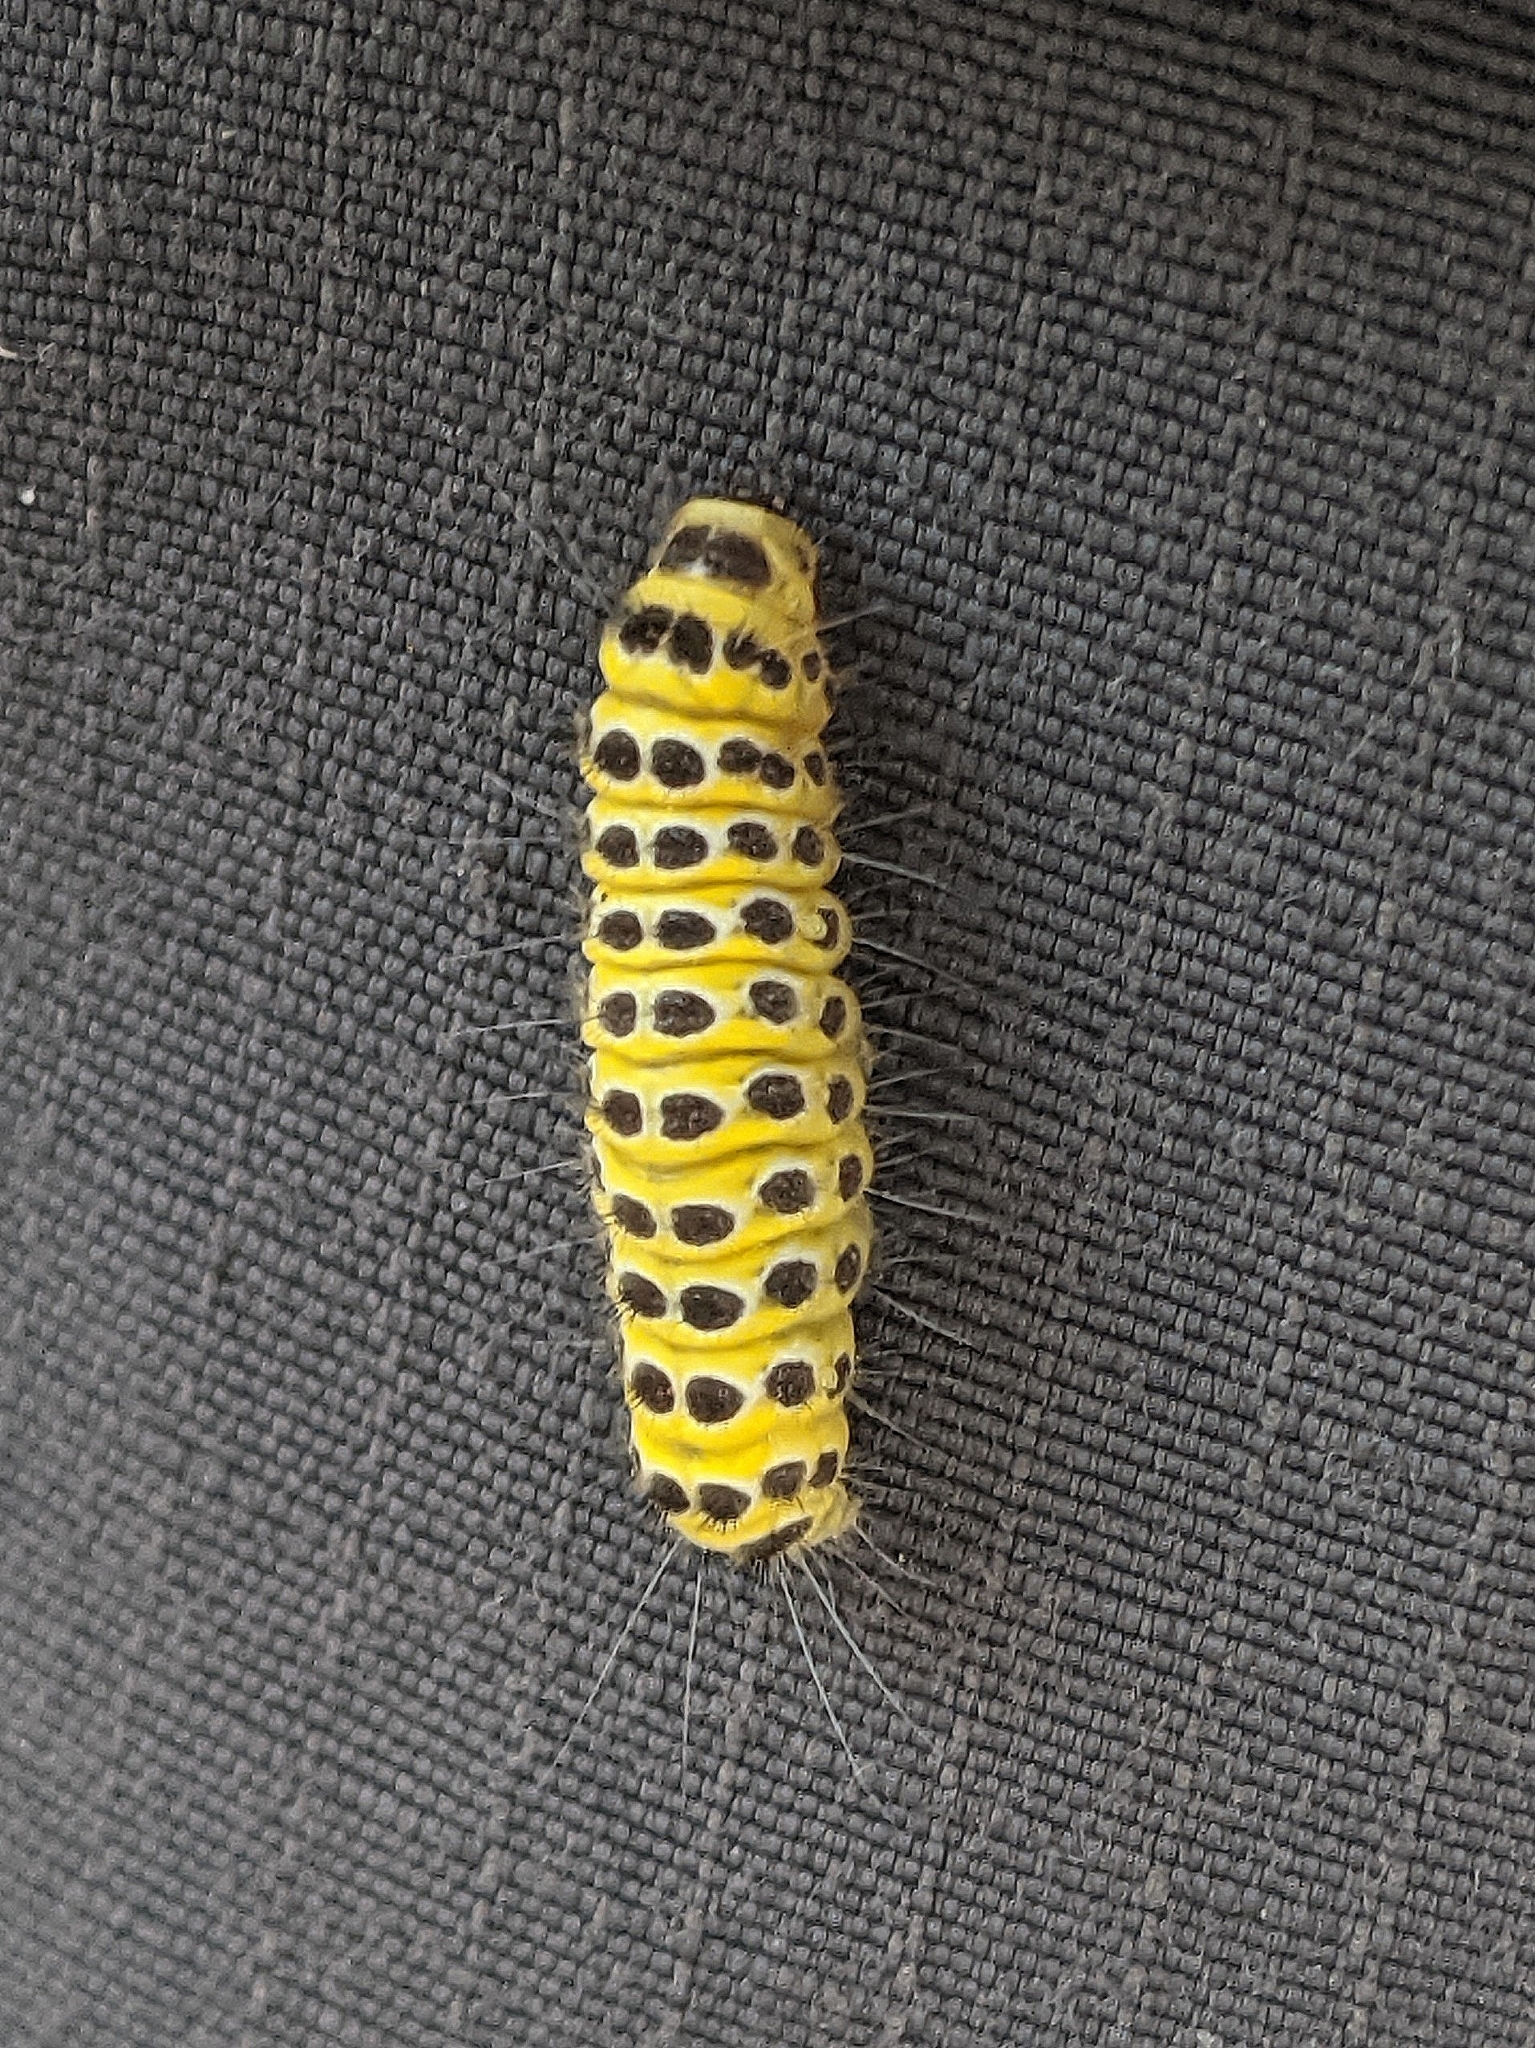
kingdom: Animalia
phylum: Arthropoda
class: Insecta
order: Lepidoptera
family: Zygaenidae
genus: Harrisina
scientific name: Harrisina americana
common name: Grapeleaf skeletonizer moth
